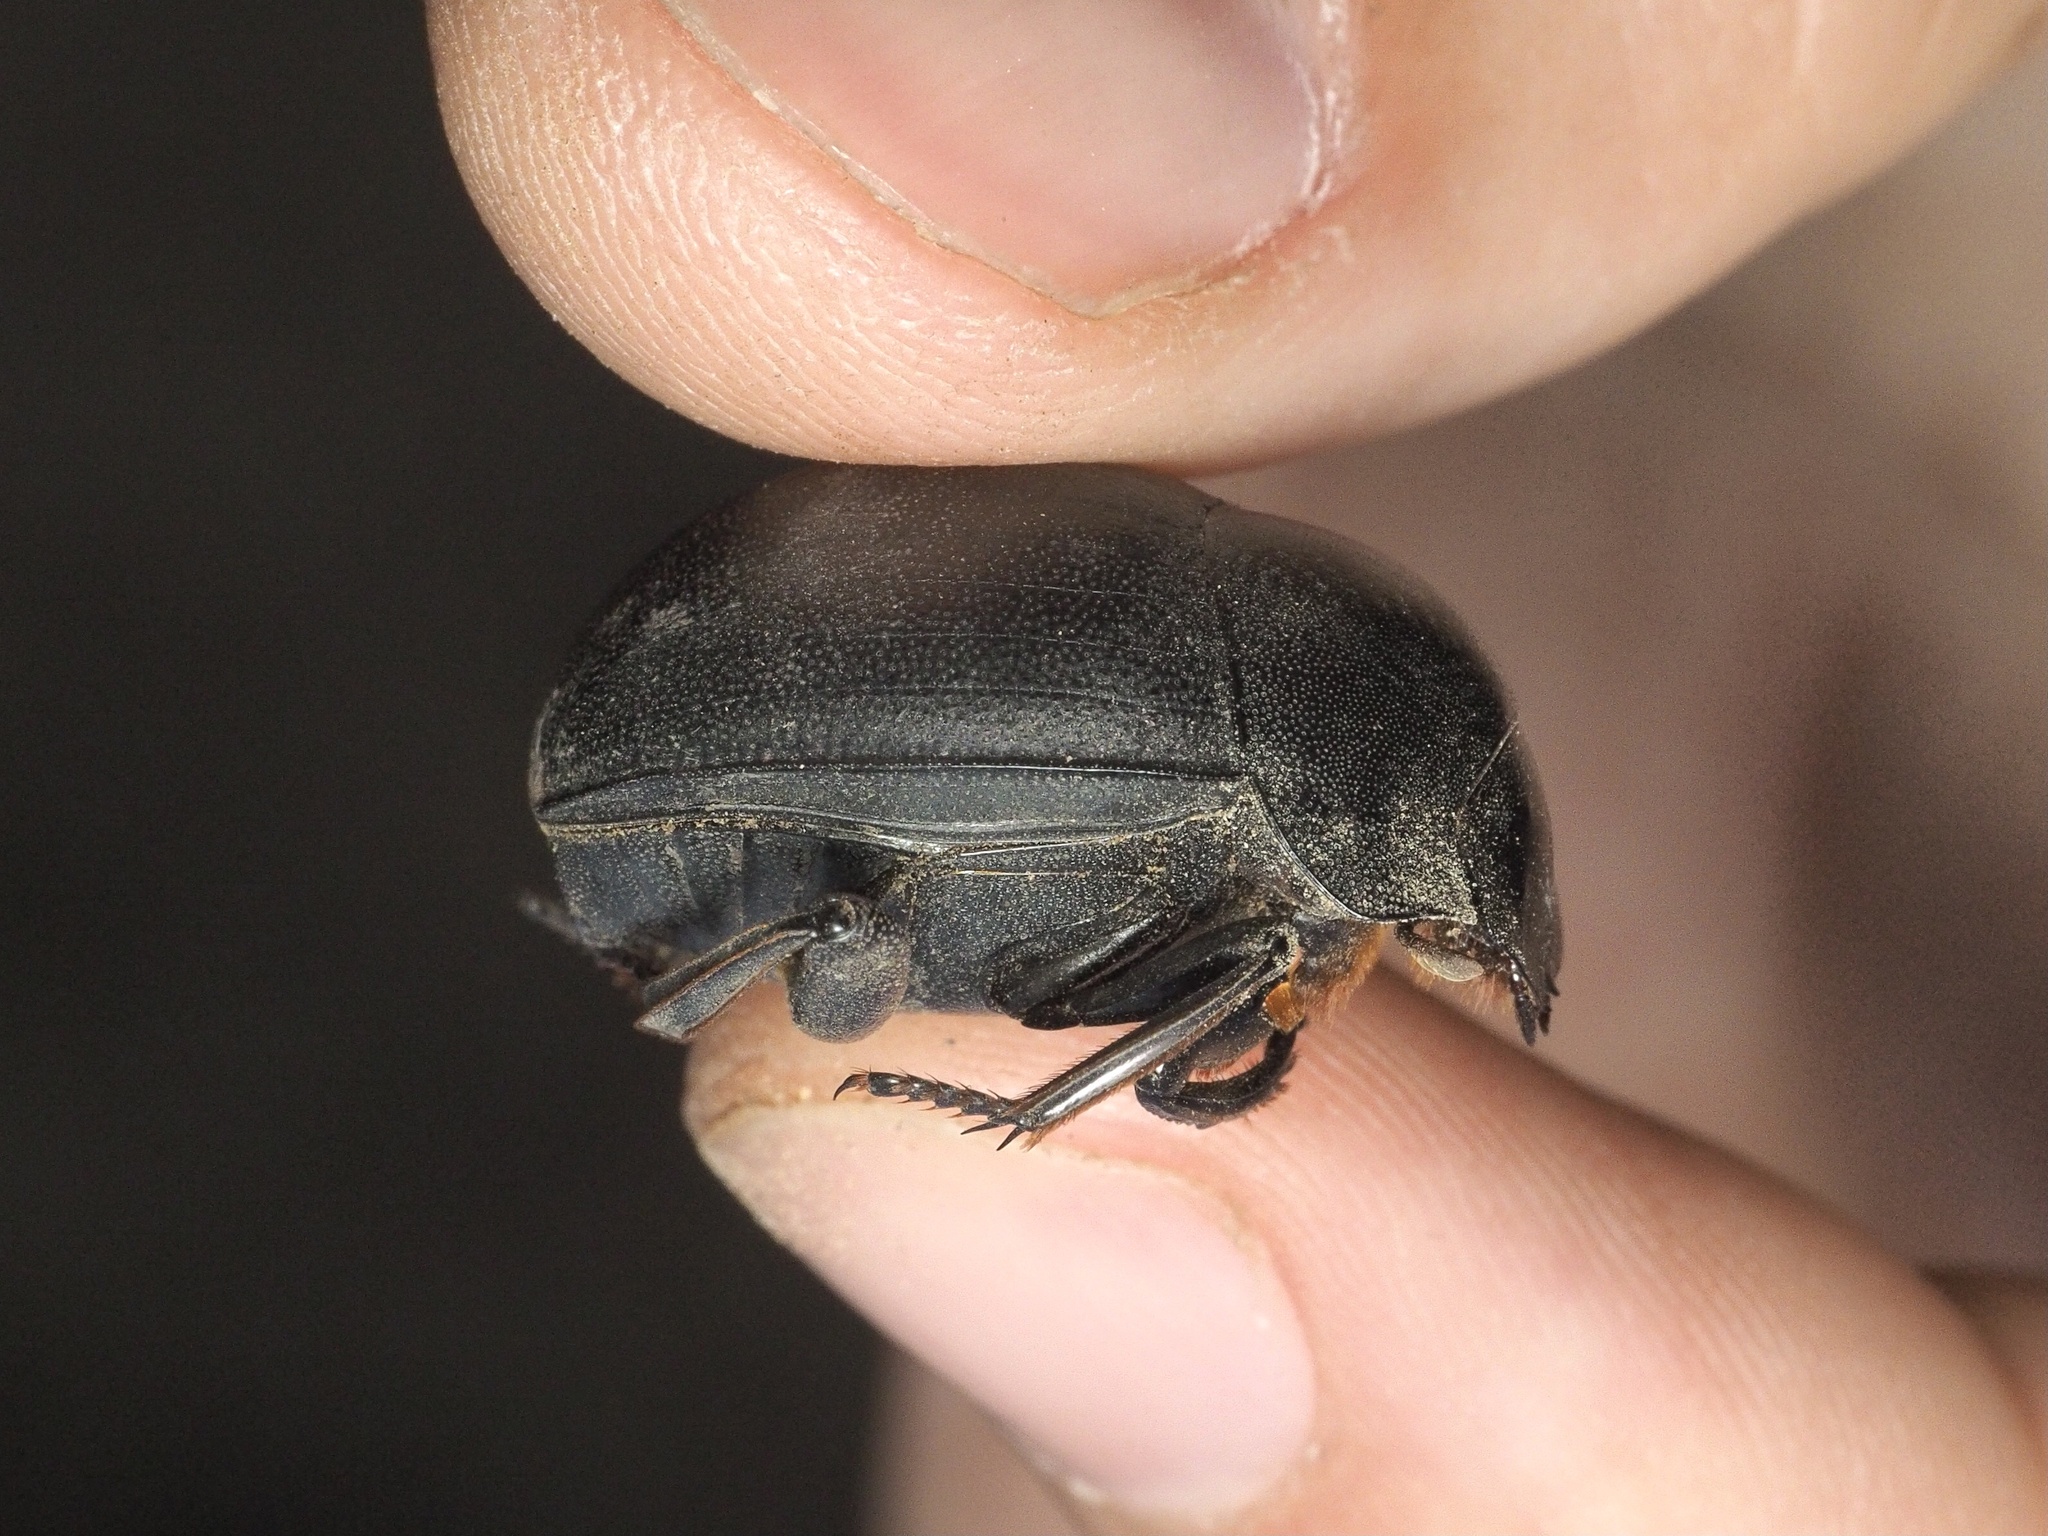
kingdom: Animalia
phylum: Arthropoda
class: Insecta
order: Coleoptera
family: Scarabaeidae
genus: Chalconotus
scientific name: Chalconotus convexus
